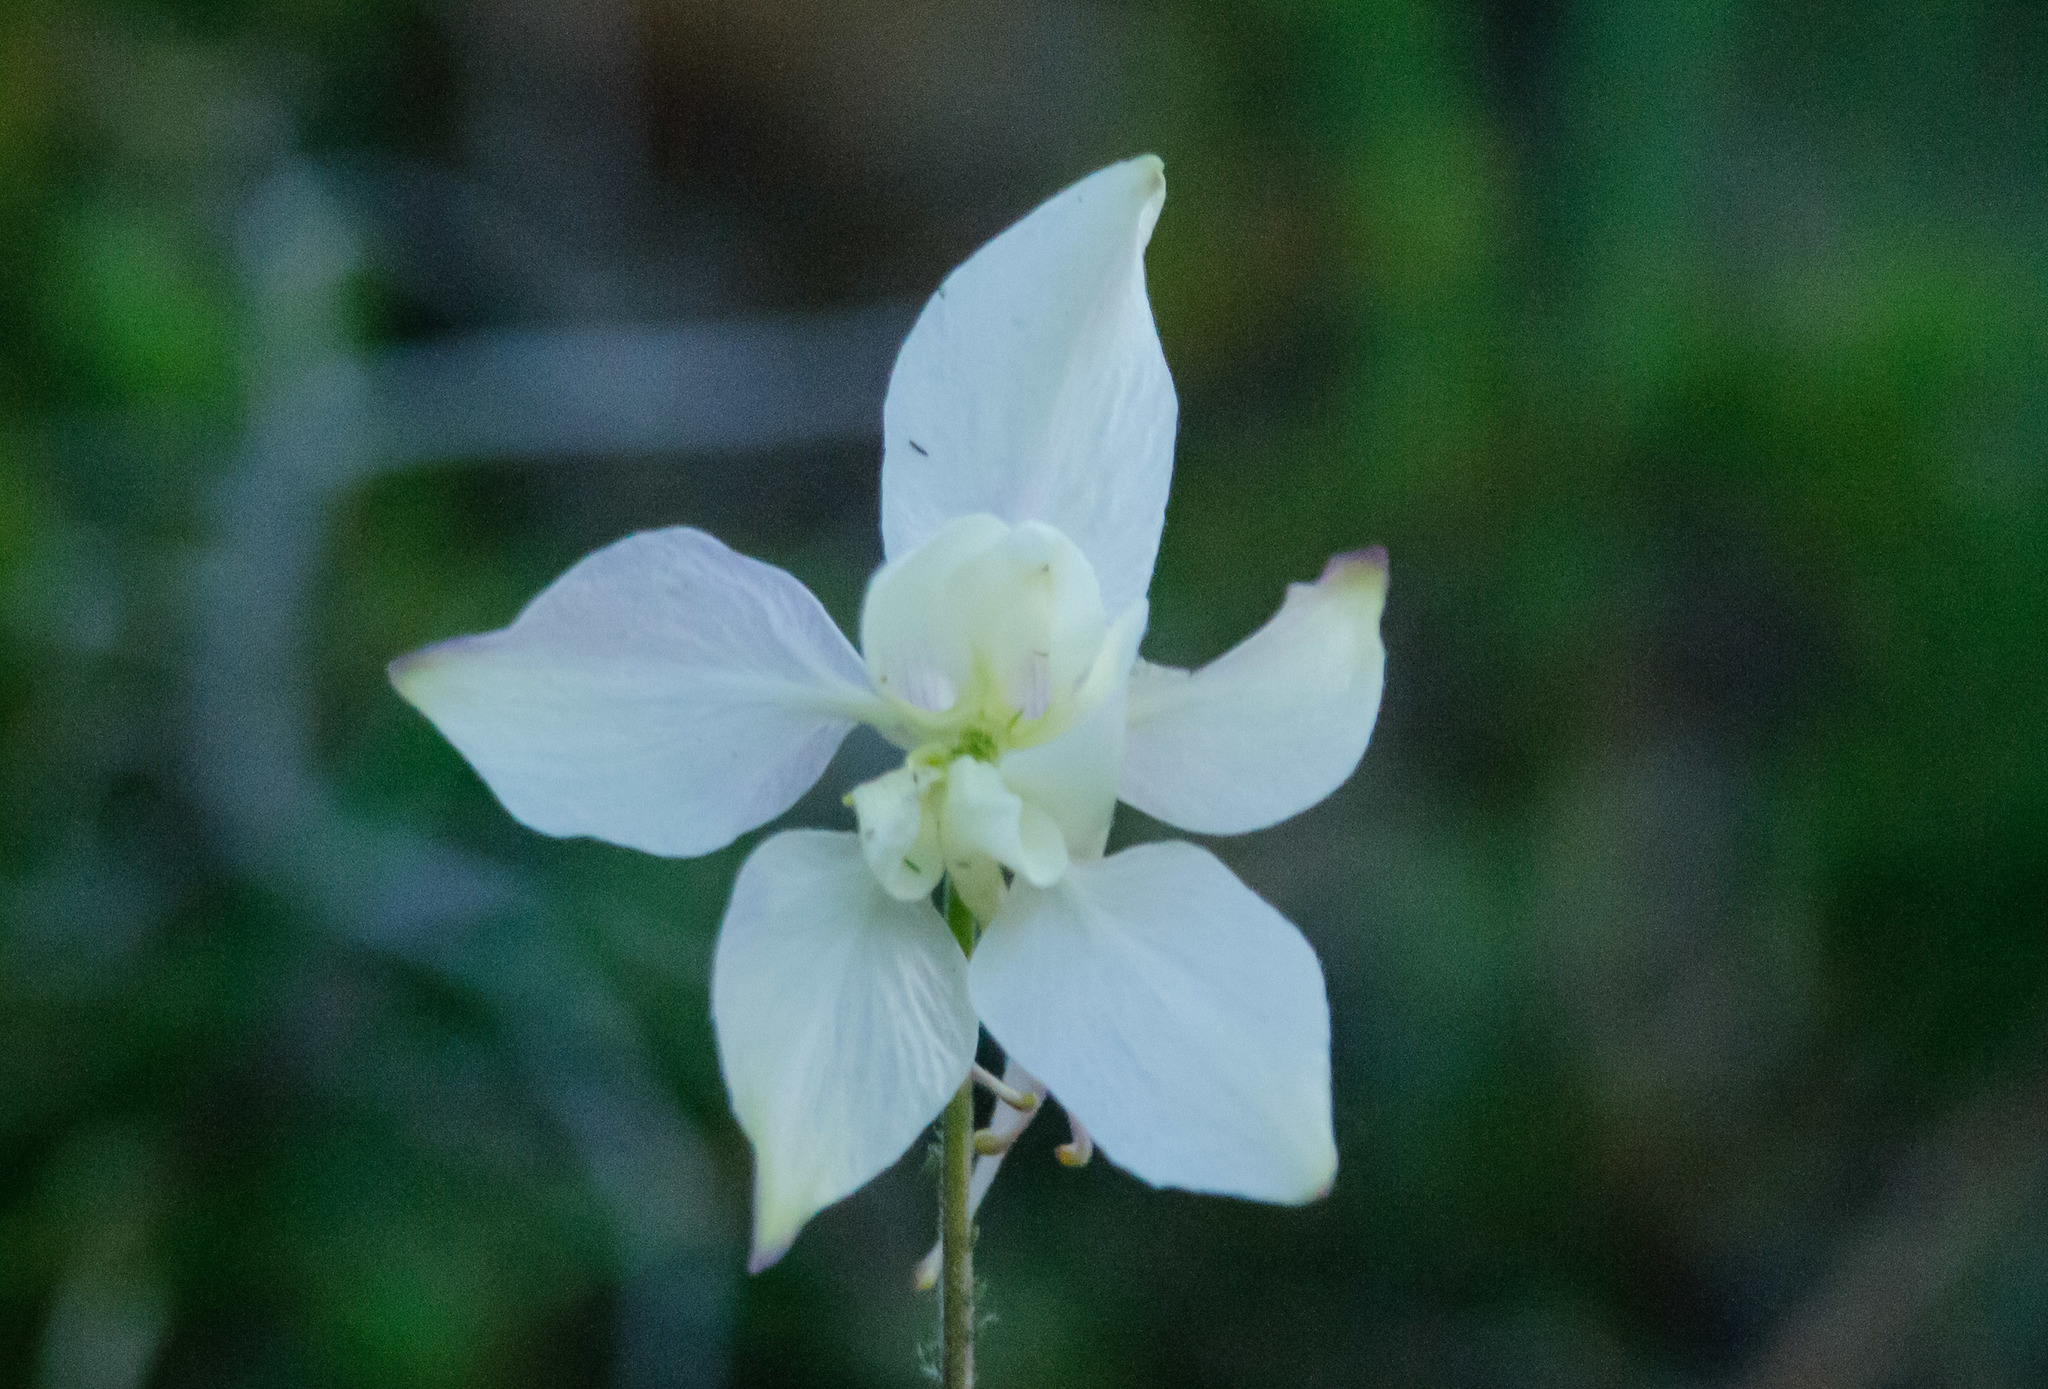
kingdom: Plantae
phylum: Tracheophyta
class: Magnoliopsida
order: Ranunculales
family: Ranunculaceae
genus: Aquilegia
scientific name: Aquilegia coerulea
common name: Rocky mountain columbine
